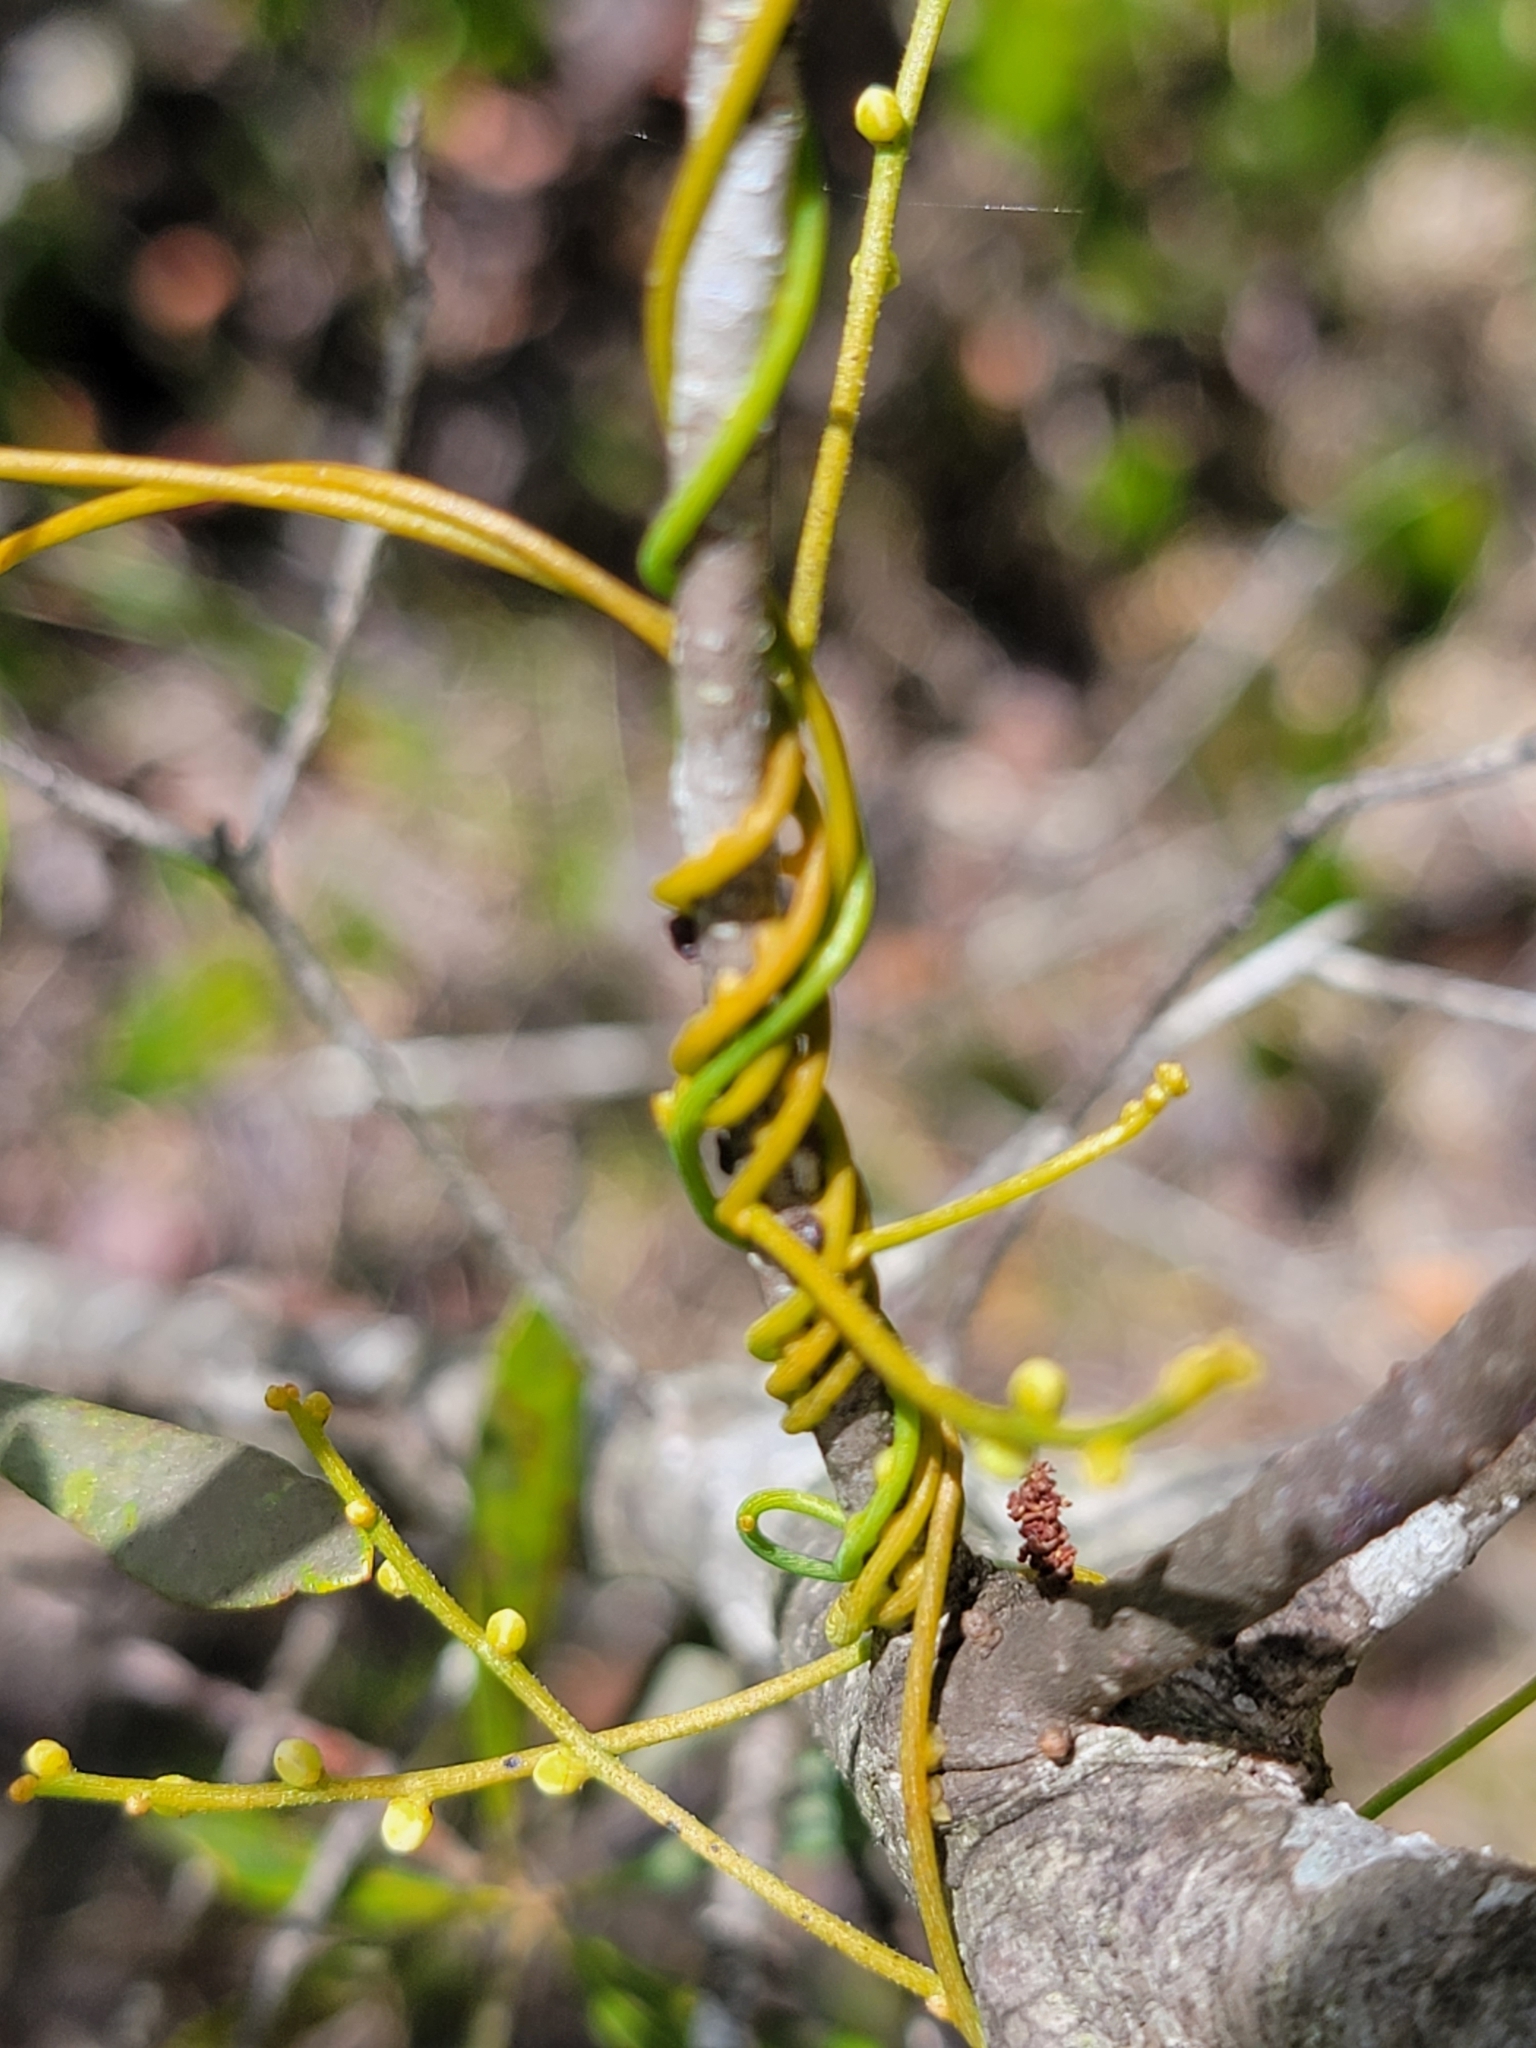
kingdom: Plantae
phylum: Tracheophyta
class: Magnoliopsida
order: Laurales
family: Lauraceae
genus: Cassytha
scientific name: Cassytha filiformis
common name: Dodder-laurel
